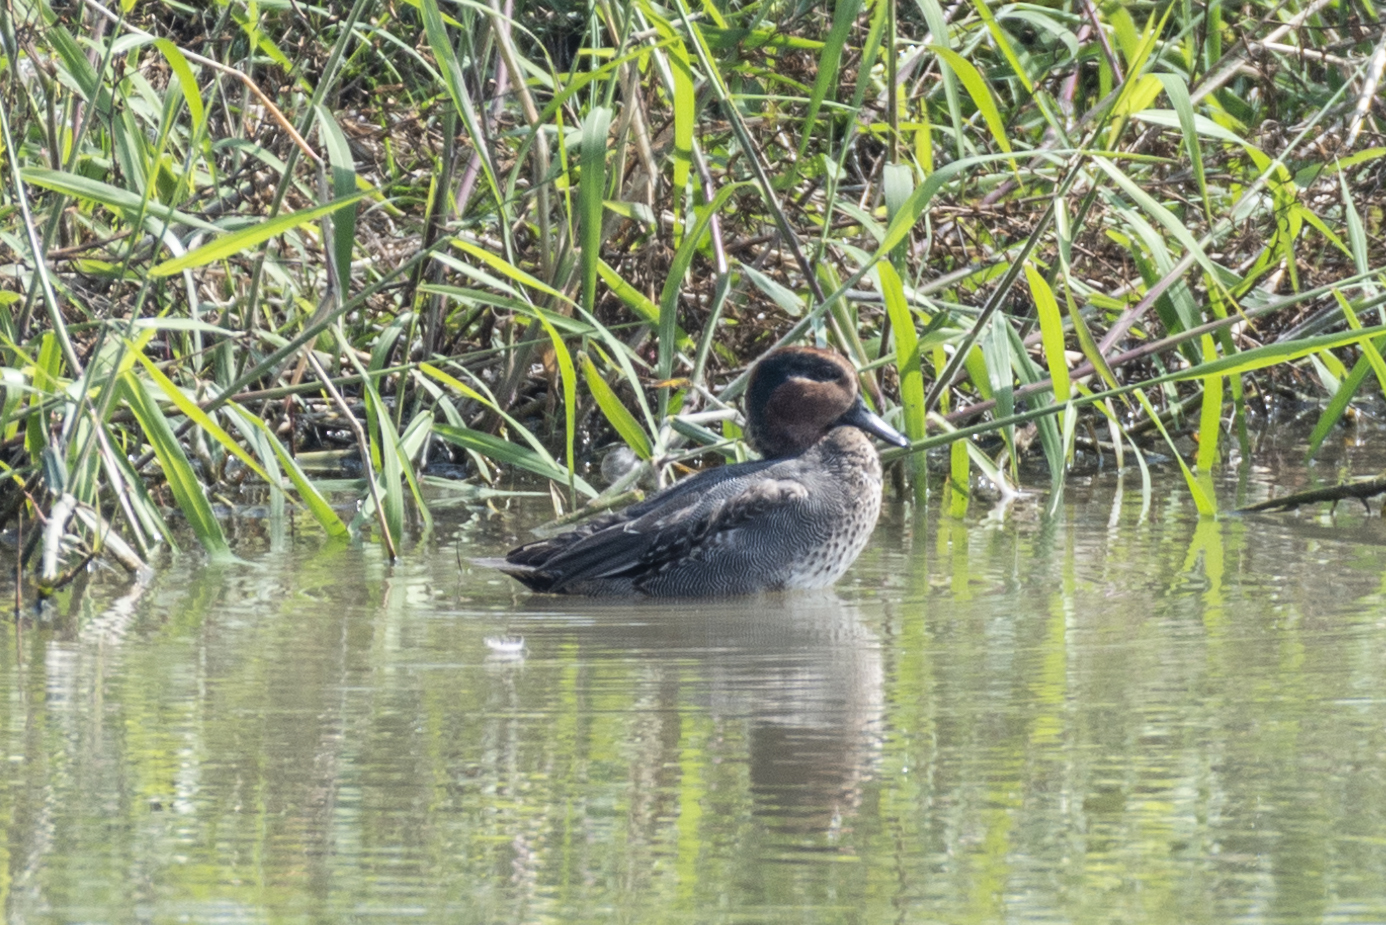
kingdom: Animalia
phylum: Chordata
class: Aves
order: Anseriformes
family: Anatidae
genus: Anas
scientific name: Anas crecca
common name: Eurasian teal
